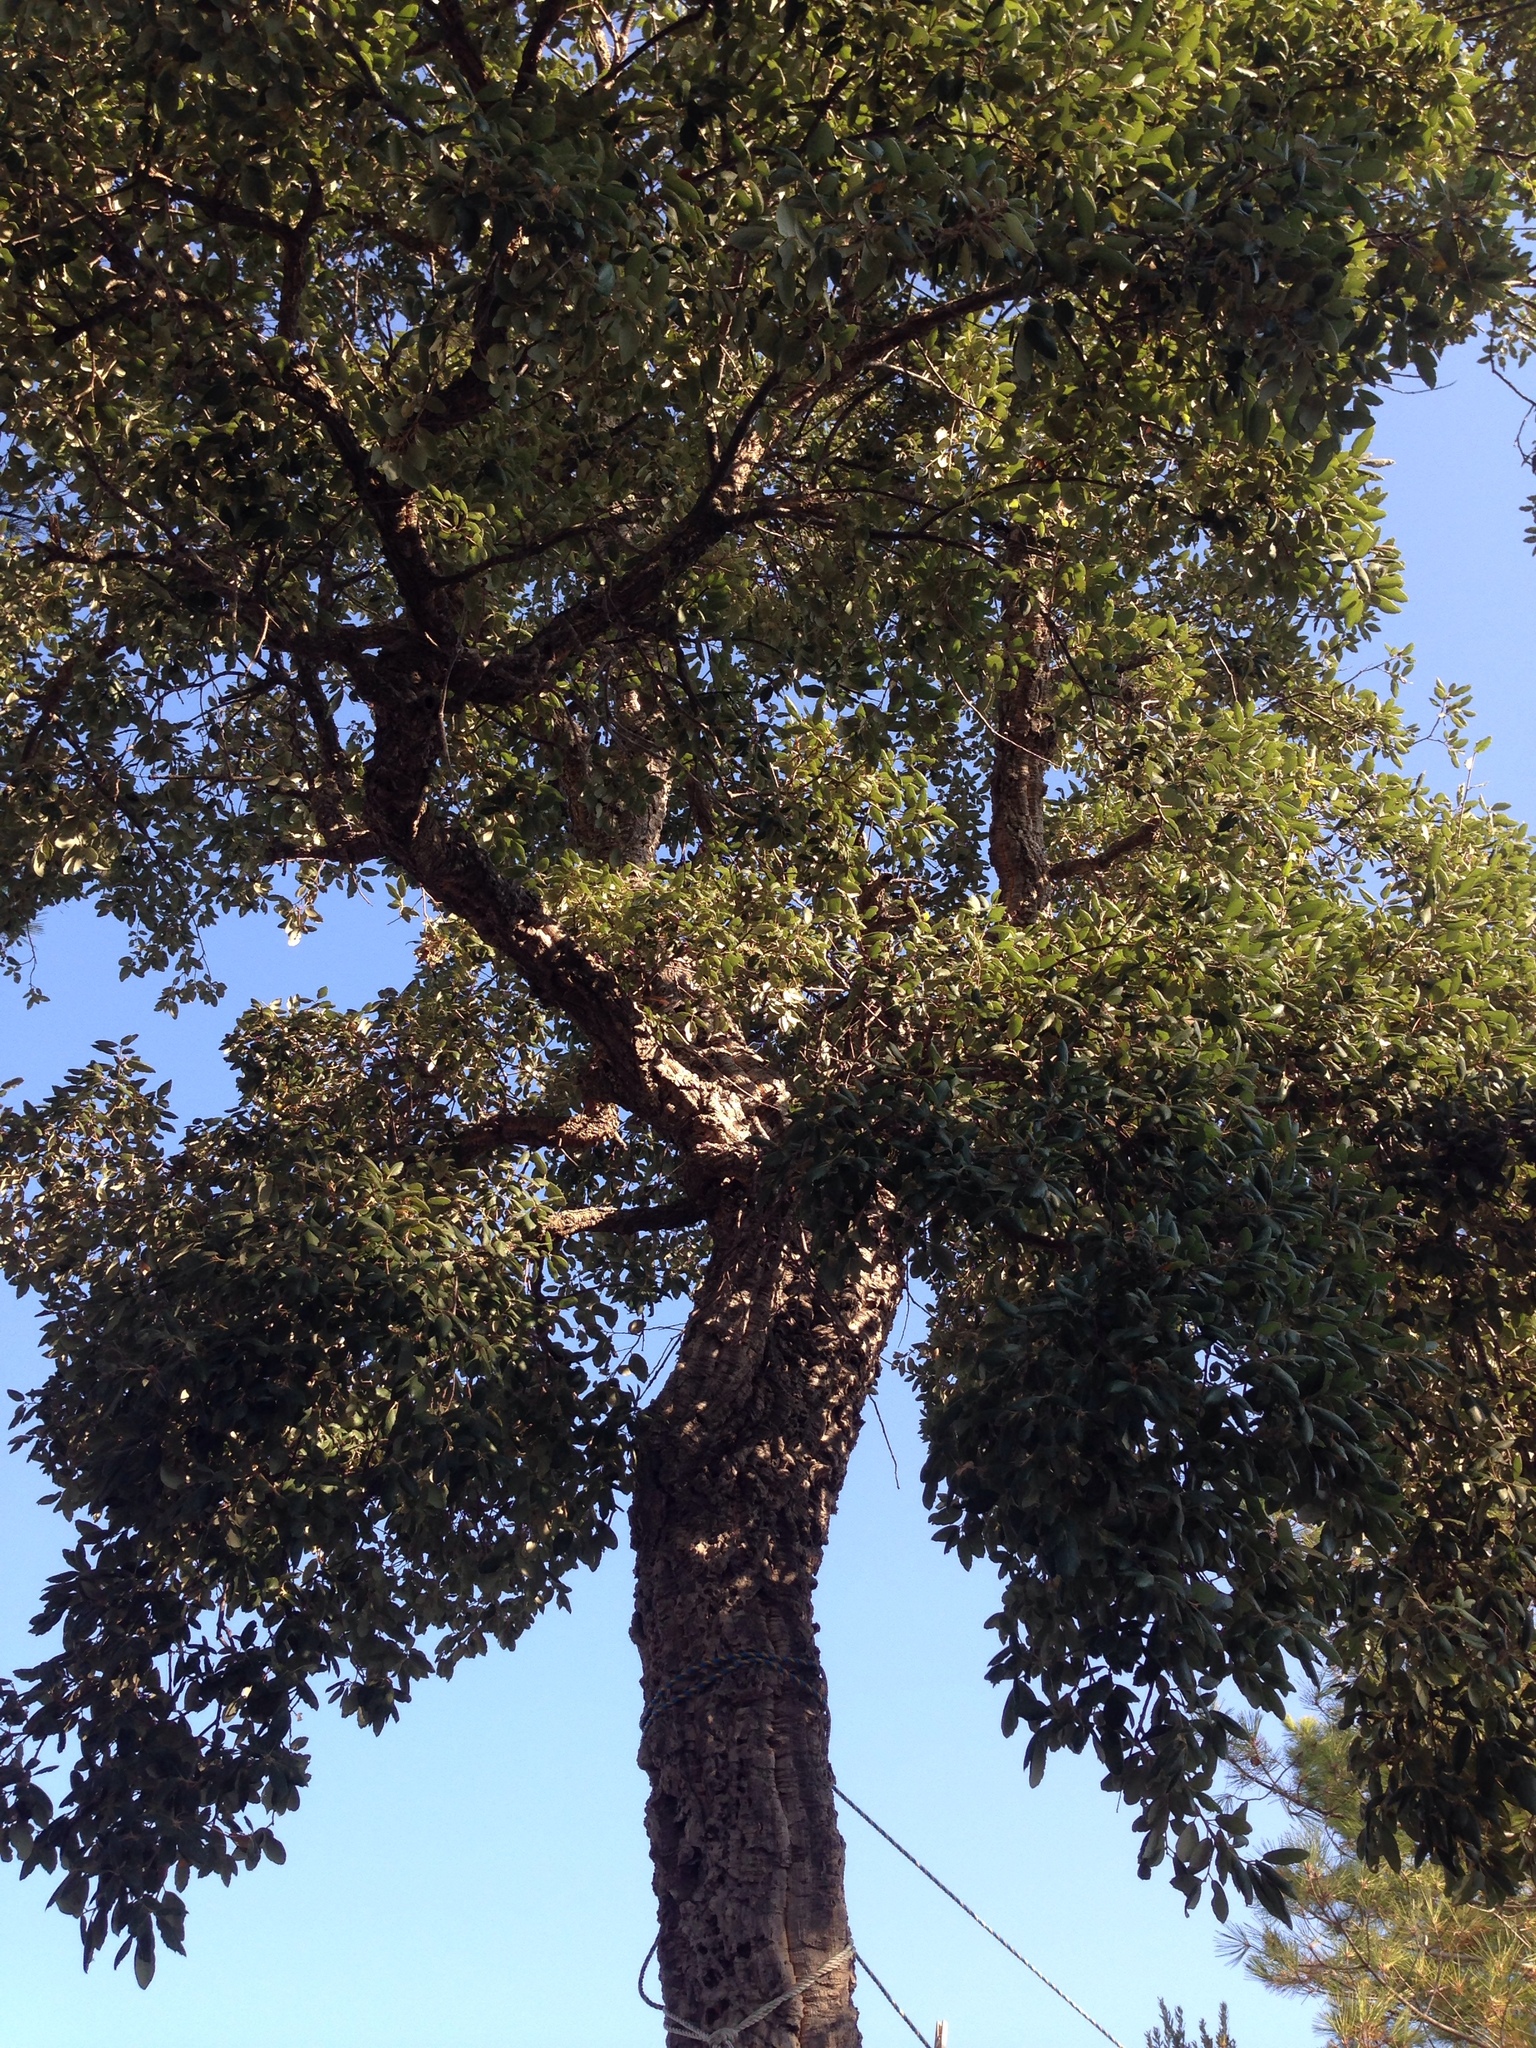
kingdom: Plantae
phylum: Tracheophyta
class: Magnoliopsida
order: Fagales
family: Fagaceae
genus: Quercus
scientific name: Quercus suber
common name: Cork oak
